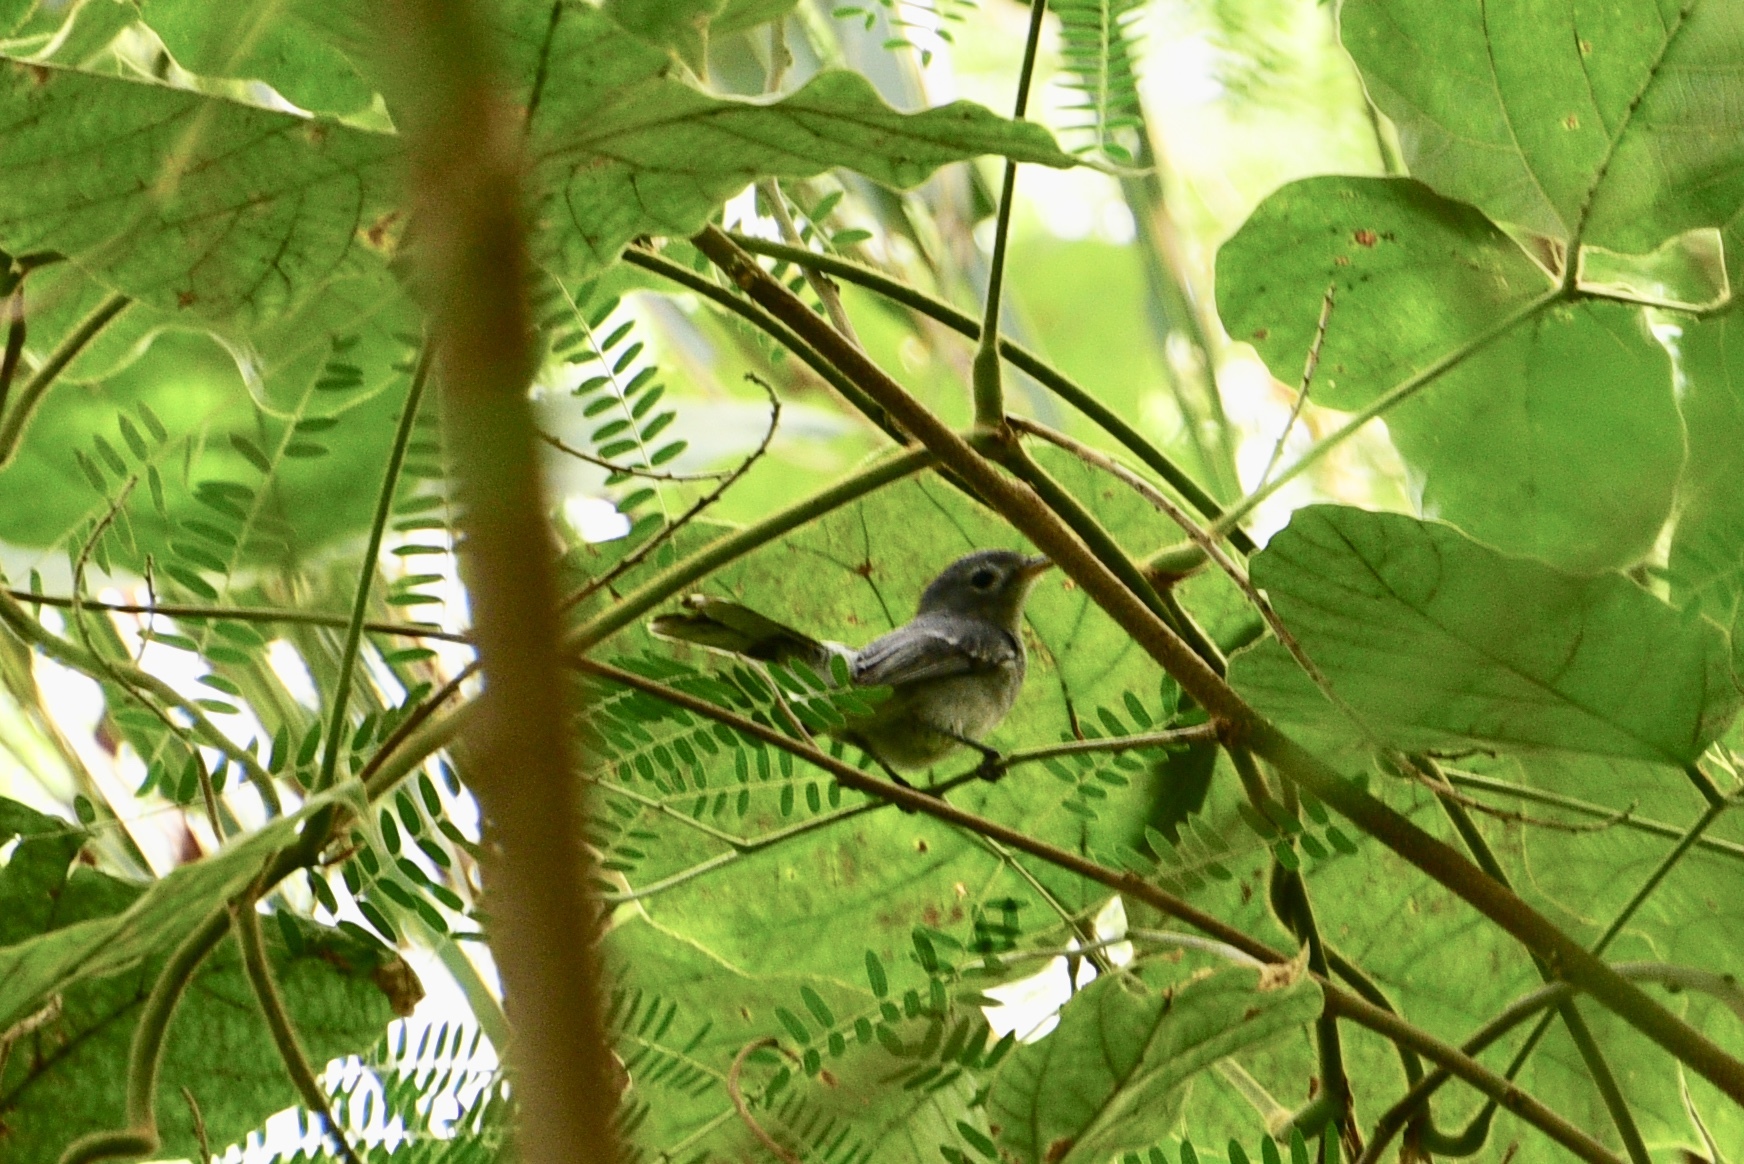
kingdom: Animalia
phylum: Chordata
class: Aves
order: Passeriformes
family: Monarchidae
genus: Mayrornis
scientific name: Mayrornis lessoni
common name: Slaty monarch
